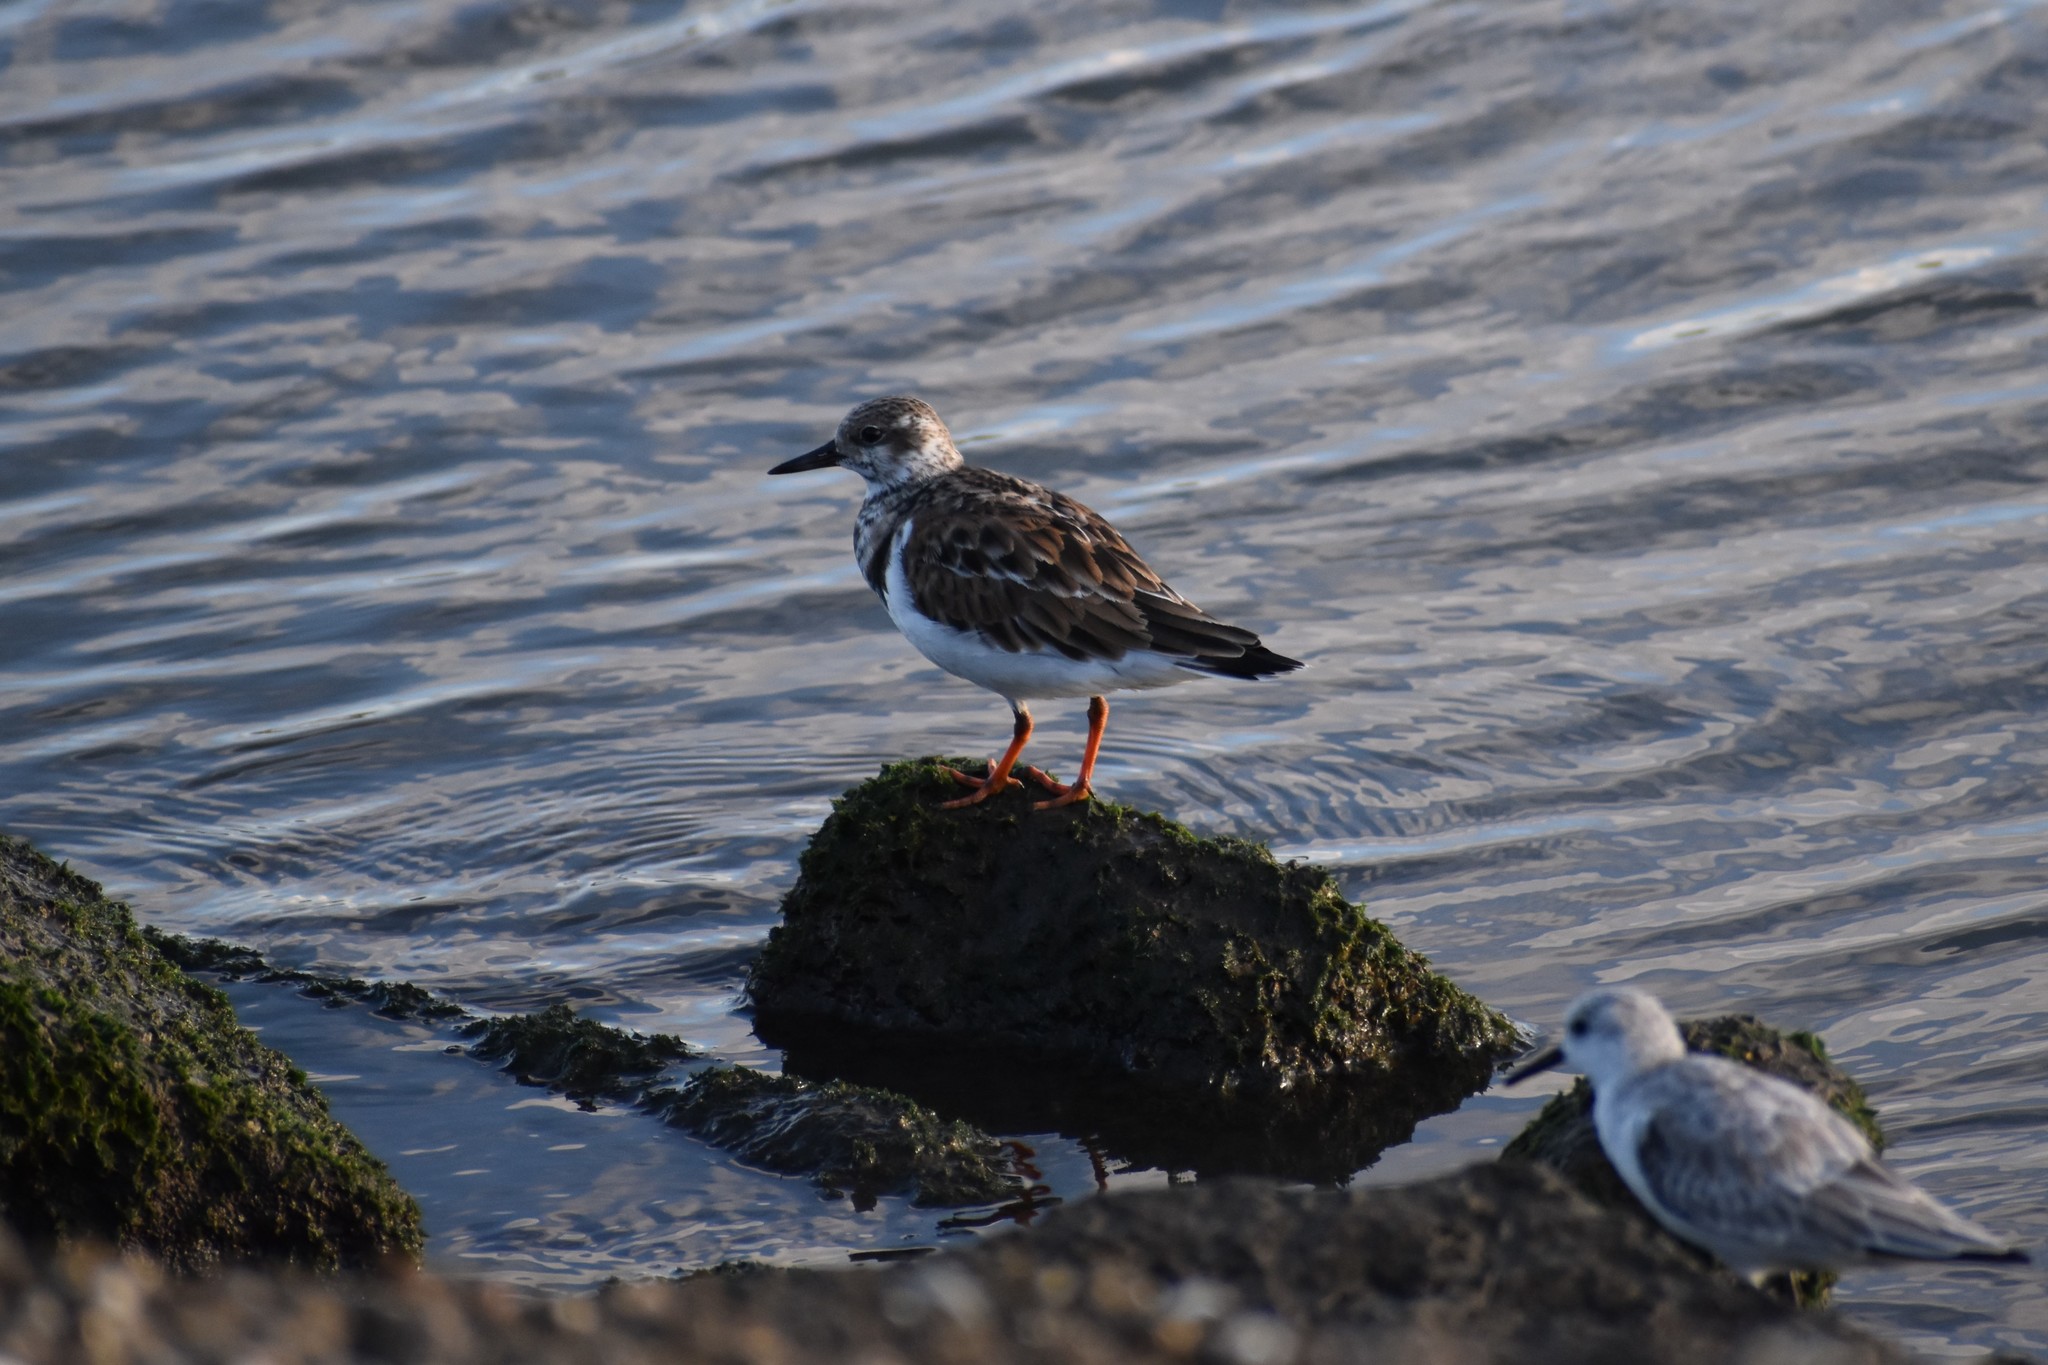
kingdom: Animalia
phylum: Chordata
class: Aves
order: Charadriiformes
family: Scolopacidae
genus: Arenaria
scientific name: Arenaria interpres
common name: Ruddy turnstone
